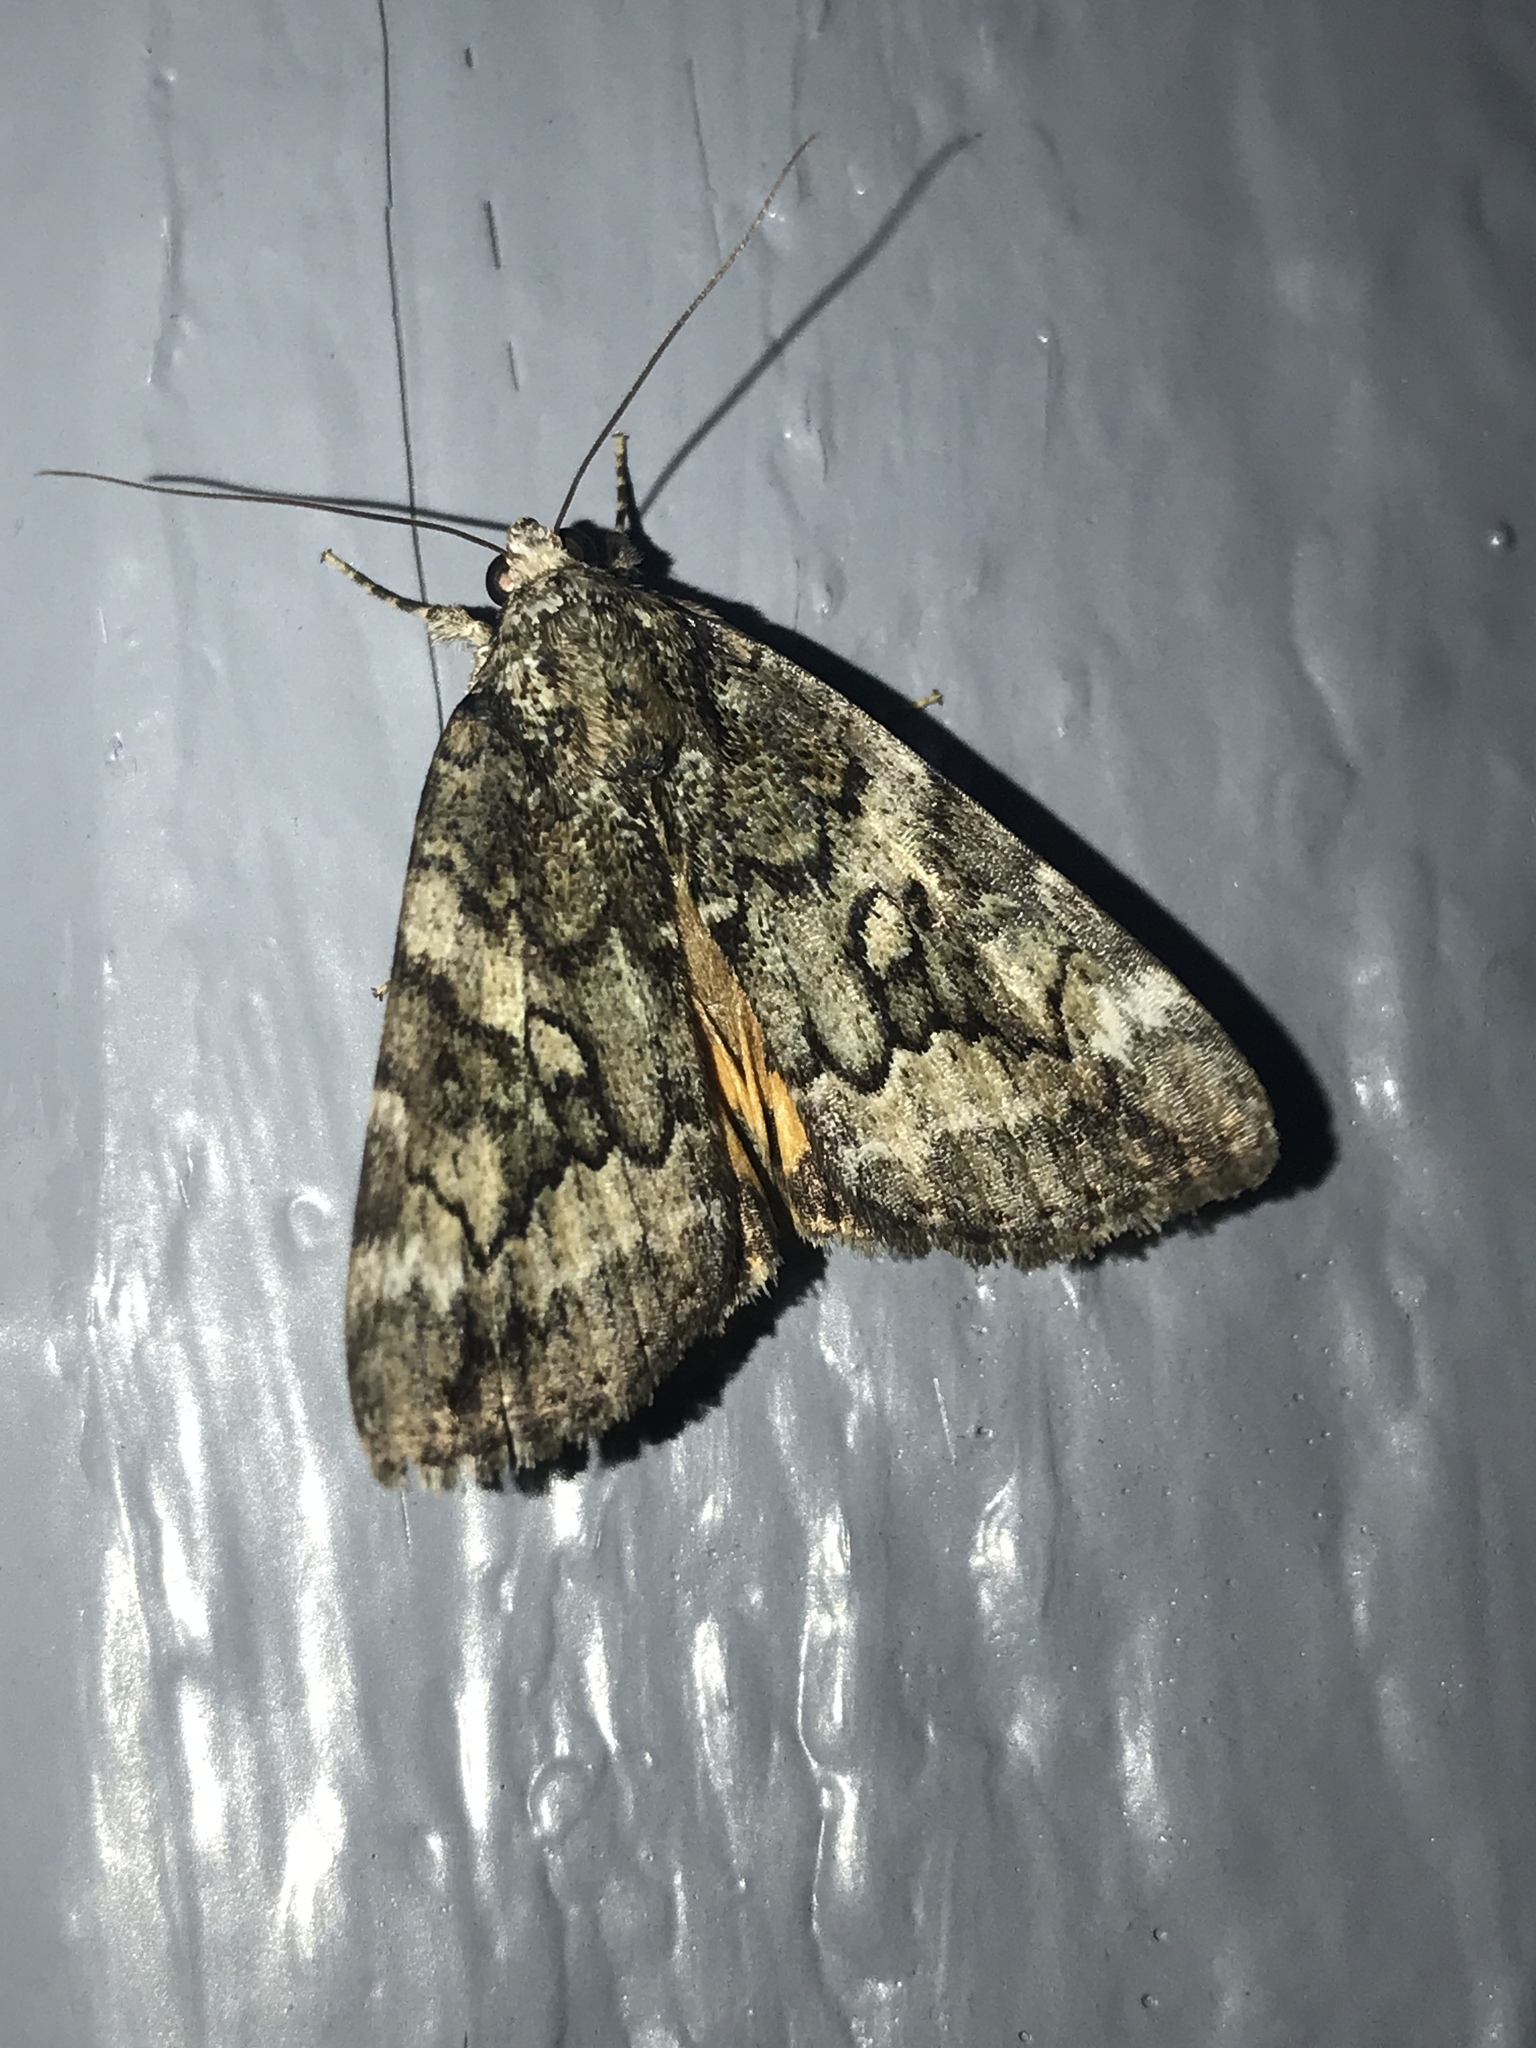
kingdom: Animalia
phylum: Arthropoda
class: Insecta
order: Lepidoptera
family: Erebidae
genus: Catocala
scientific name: Catocala micronympha
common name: Little nymph underwing
